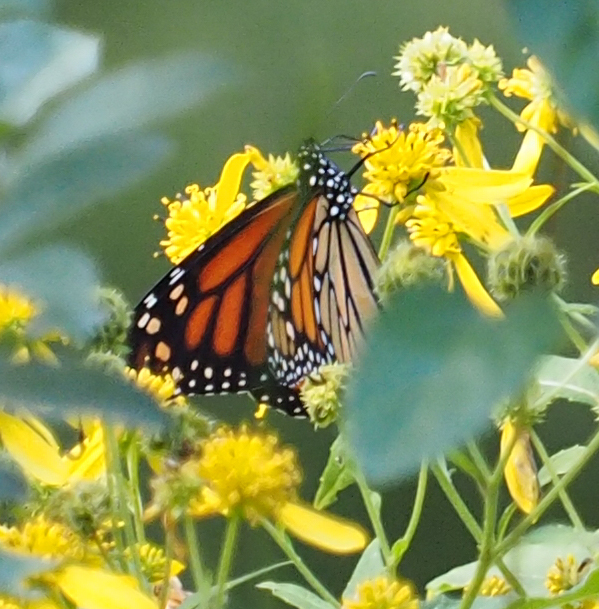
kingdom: Animalia
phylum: Arthropoda
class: Insecta
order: Lepidoptera
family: Nymphalidae
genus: Danaus
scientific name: Danaus plexippus
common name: Monarch
